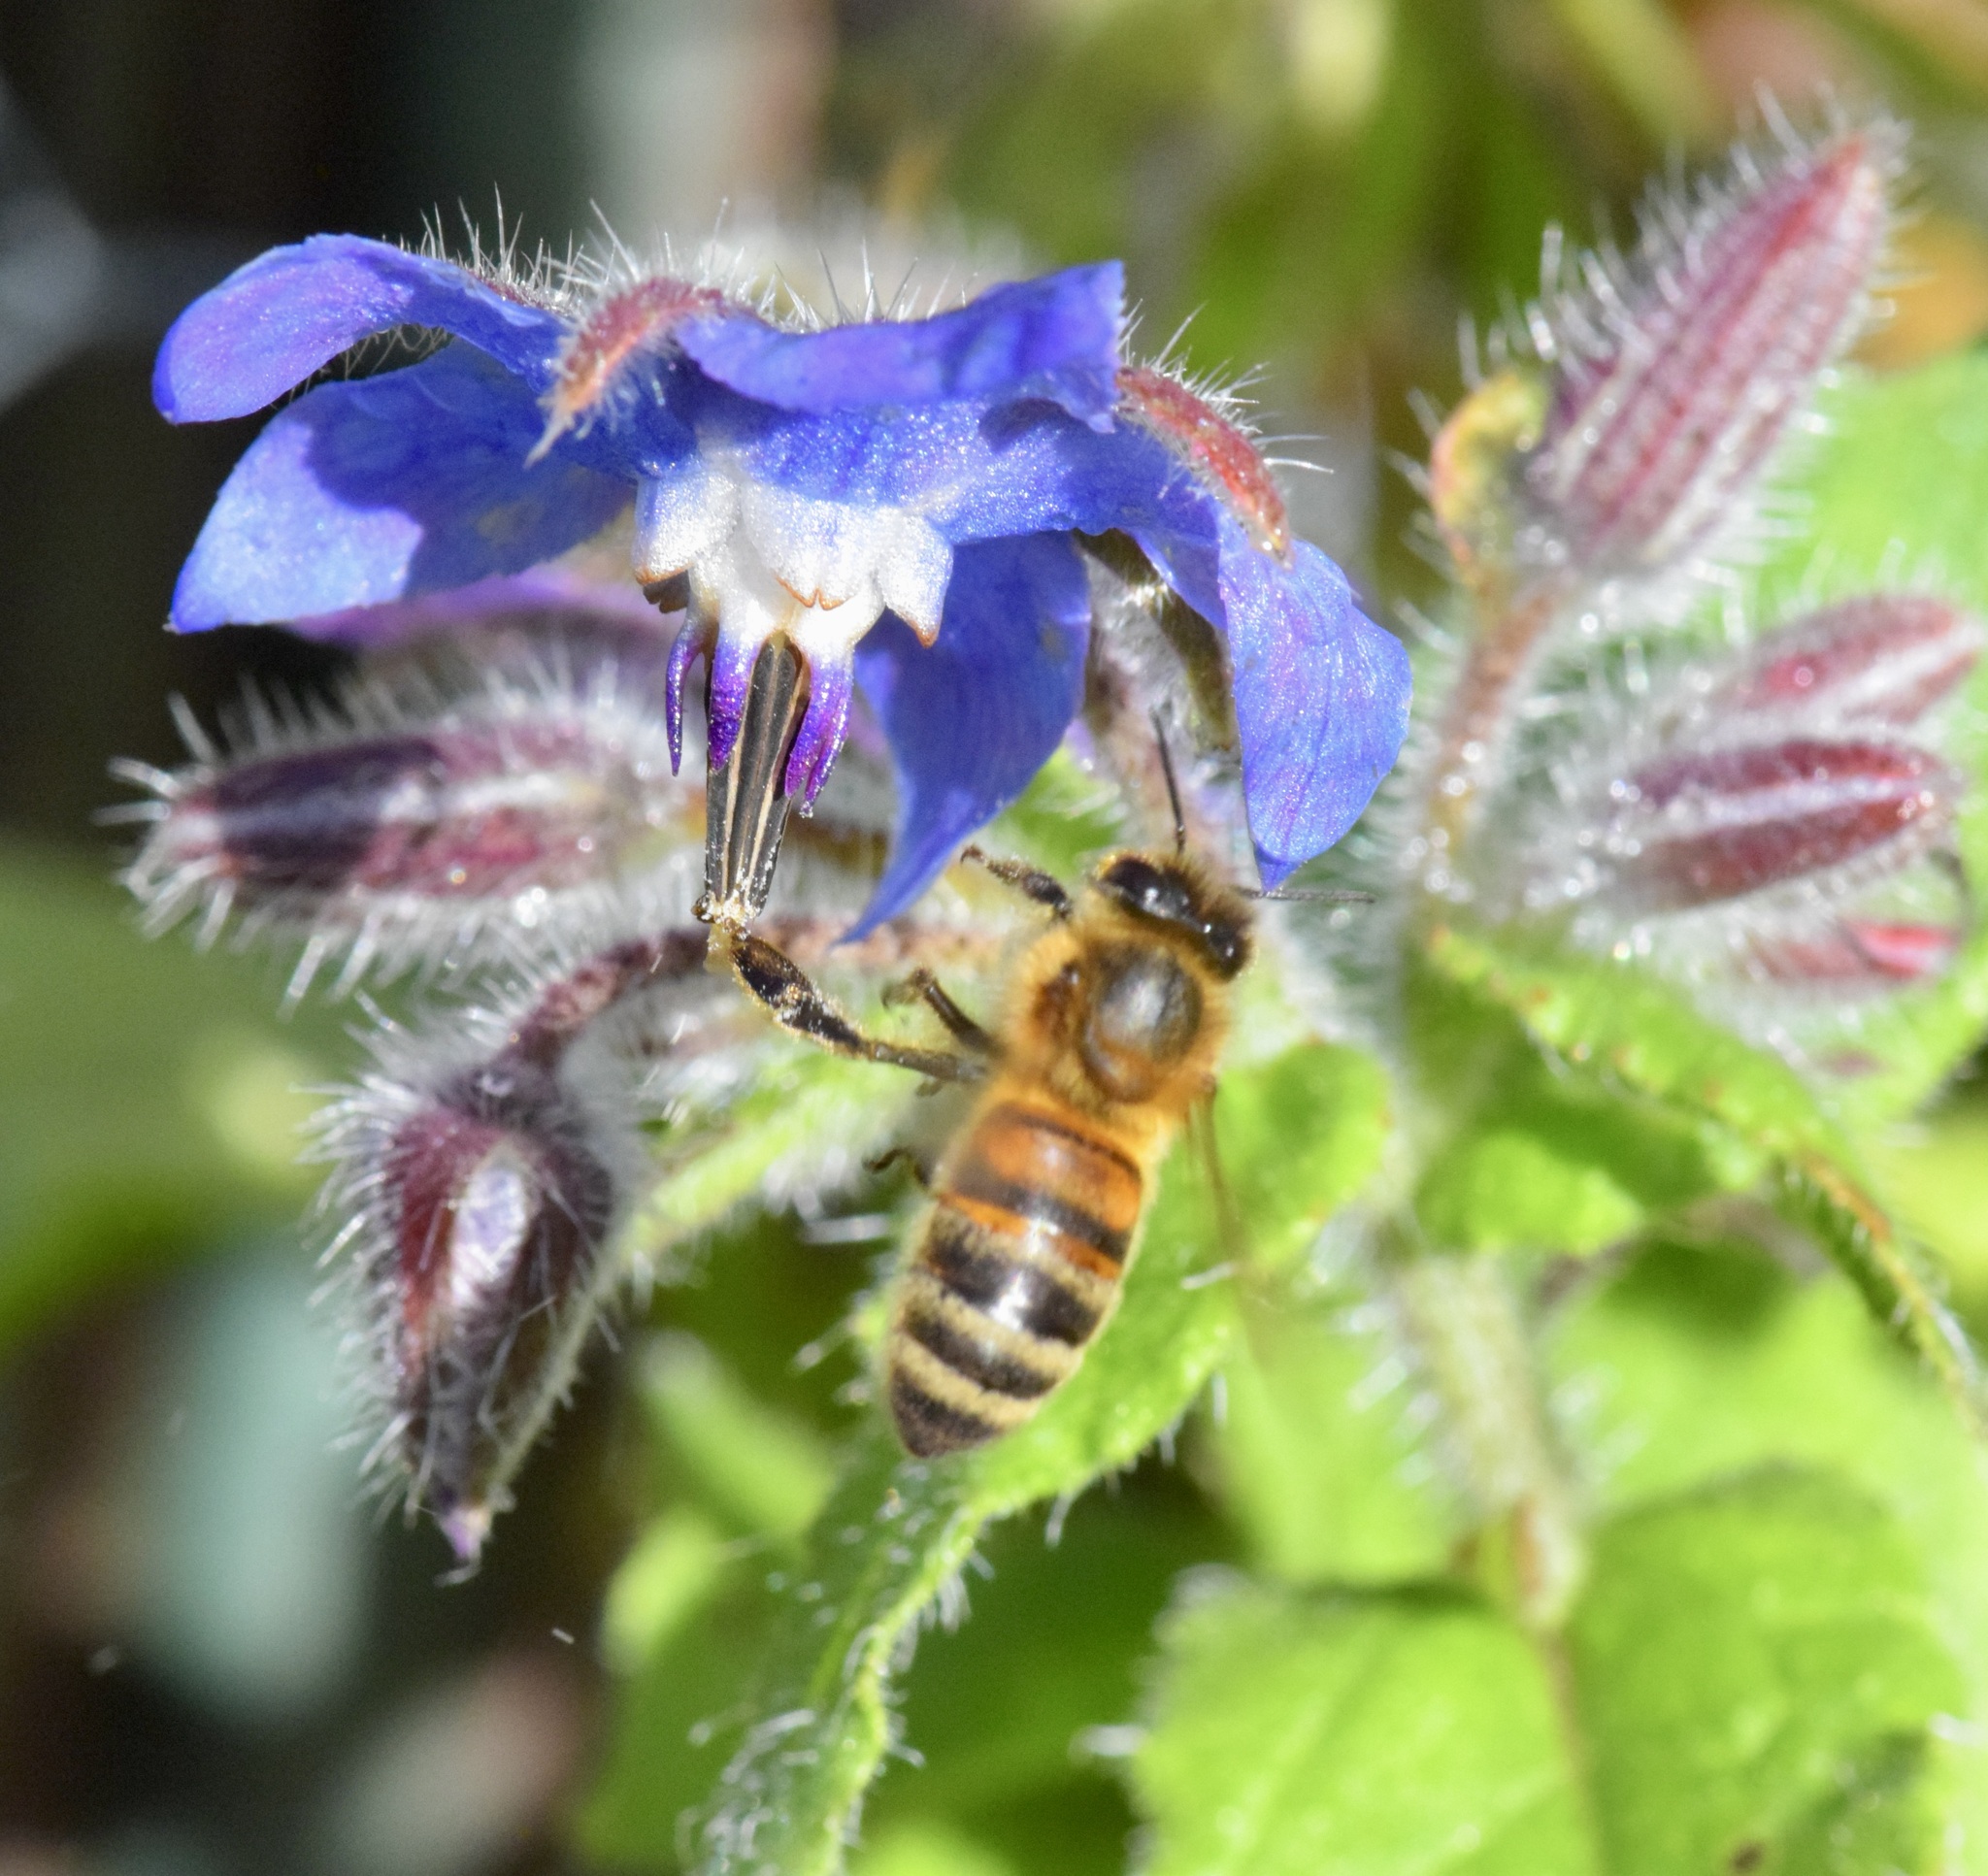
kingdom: Animalia
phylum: Arthropoda
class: Insecta
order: Hymenoptera
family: Apidae
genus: Apis
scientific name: Apis mellifera
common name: Honey bee
